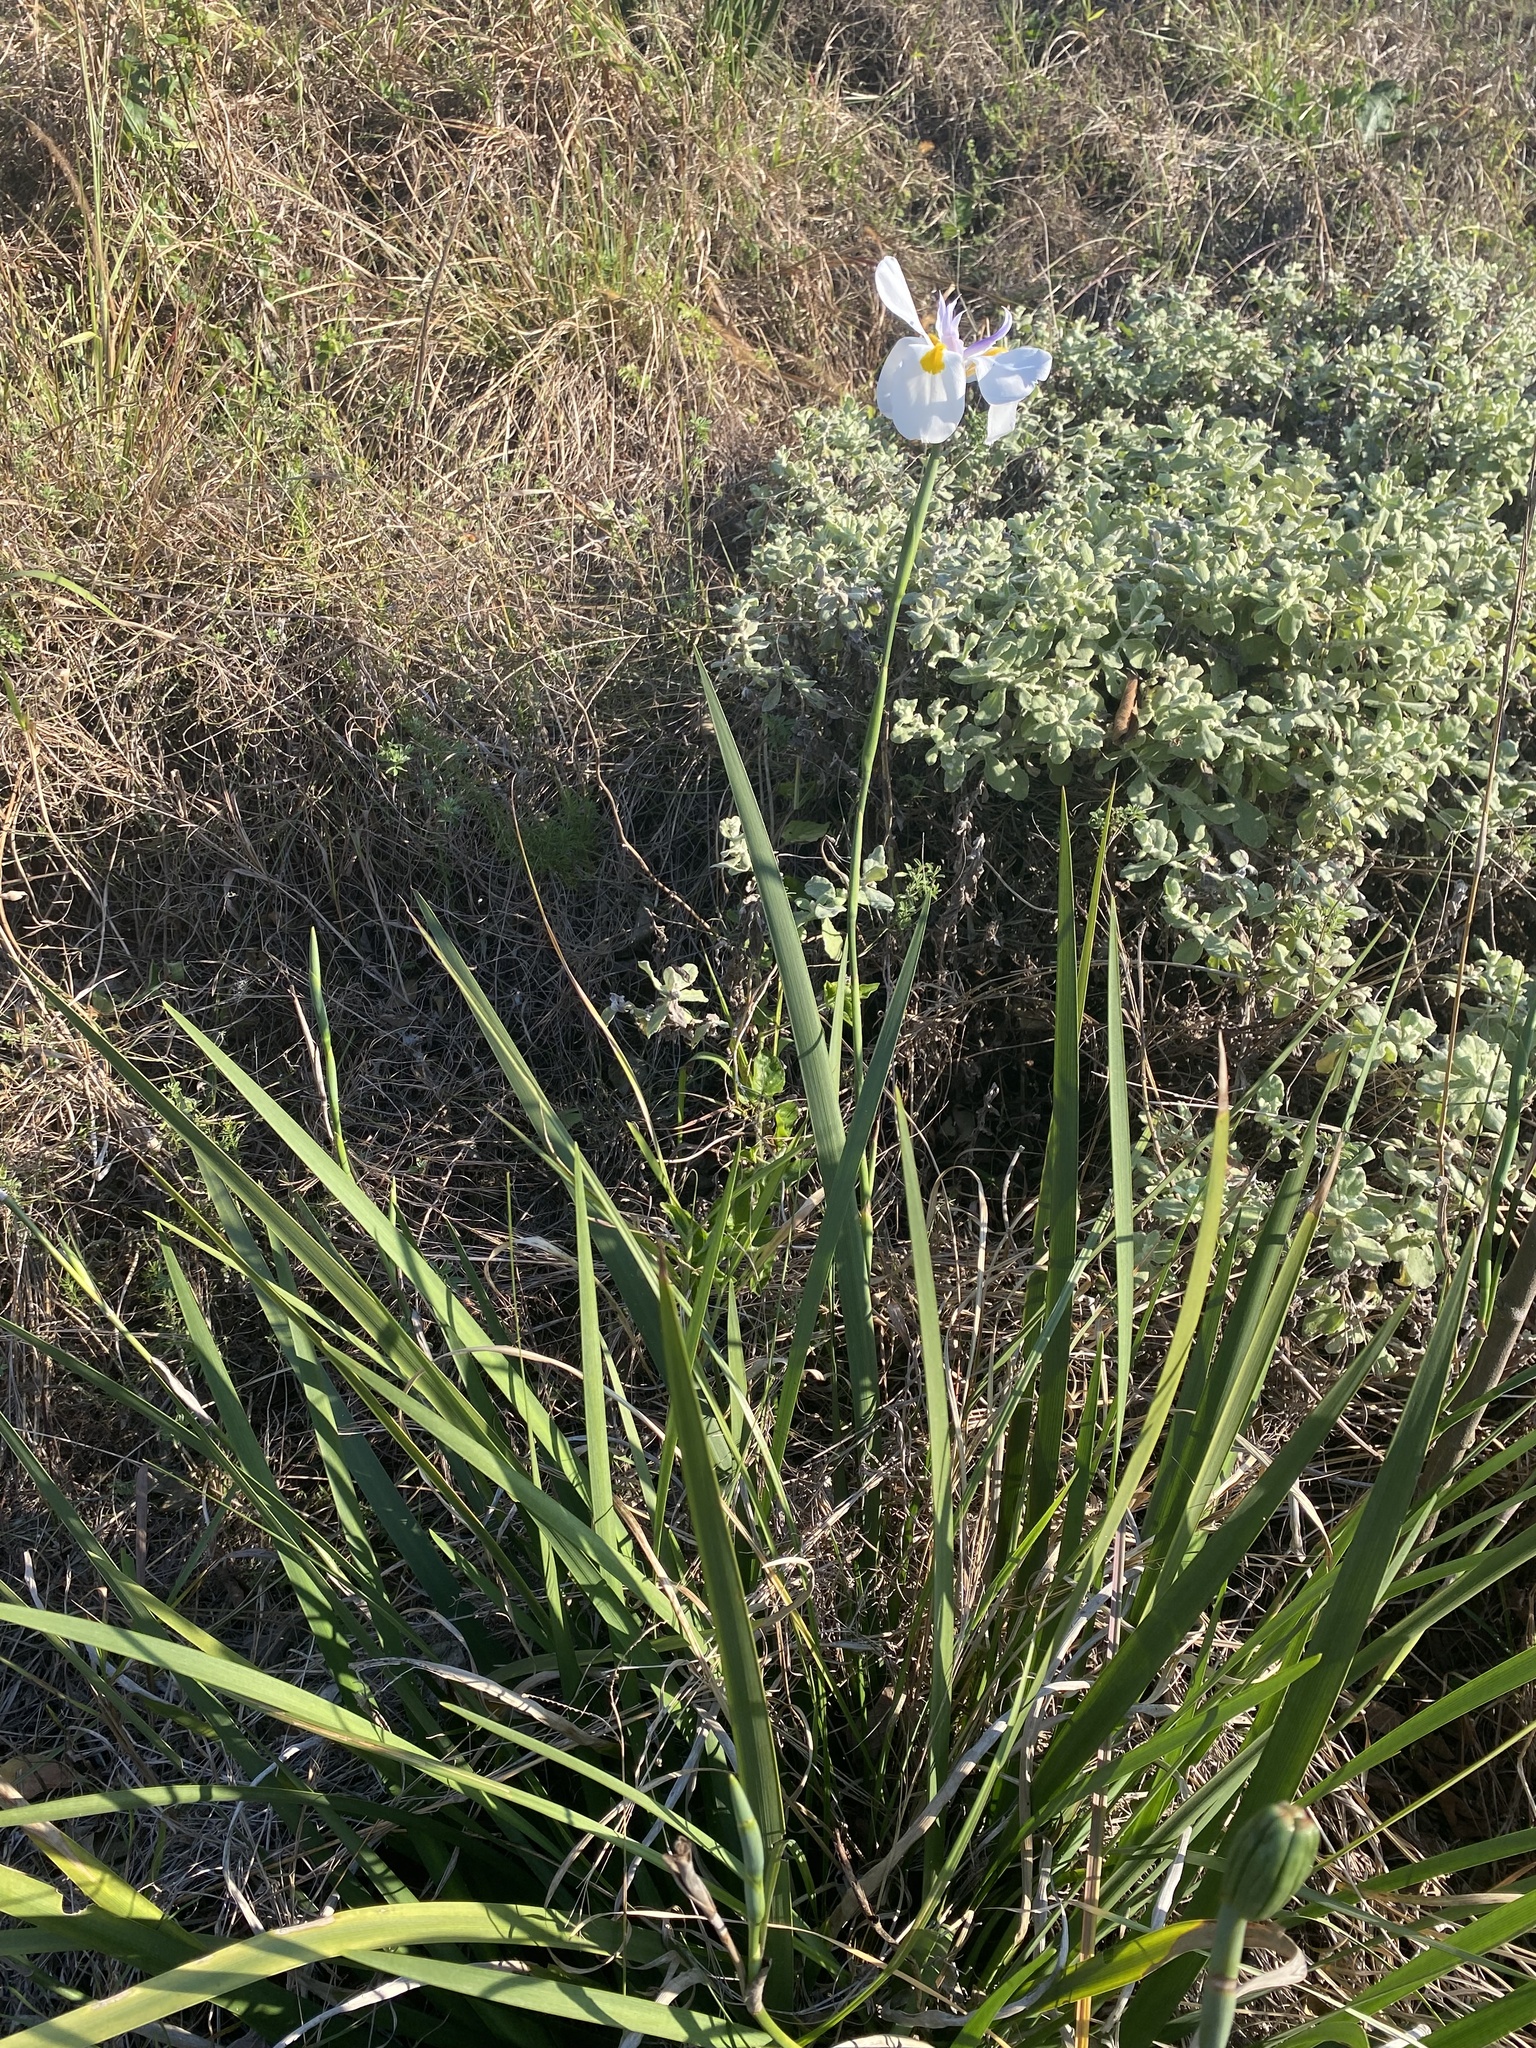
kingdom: Plantae
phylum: Tracheophyta
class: Liliopsida
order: Asparagales
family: Iridaceae
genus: Dietes
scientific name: Dietes grandiflora
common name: Wild iris
